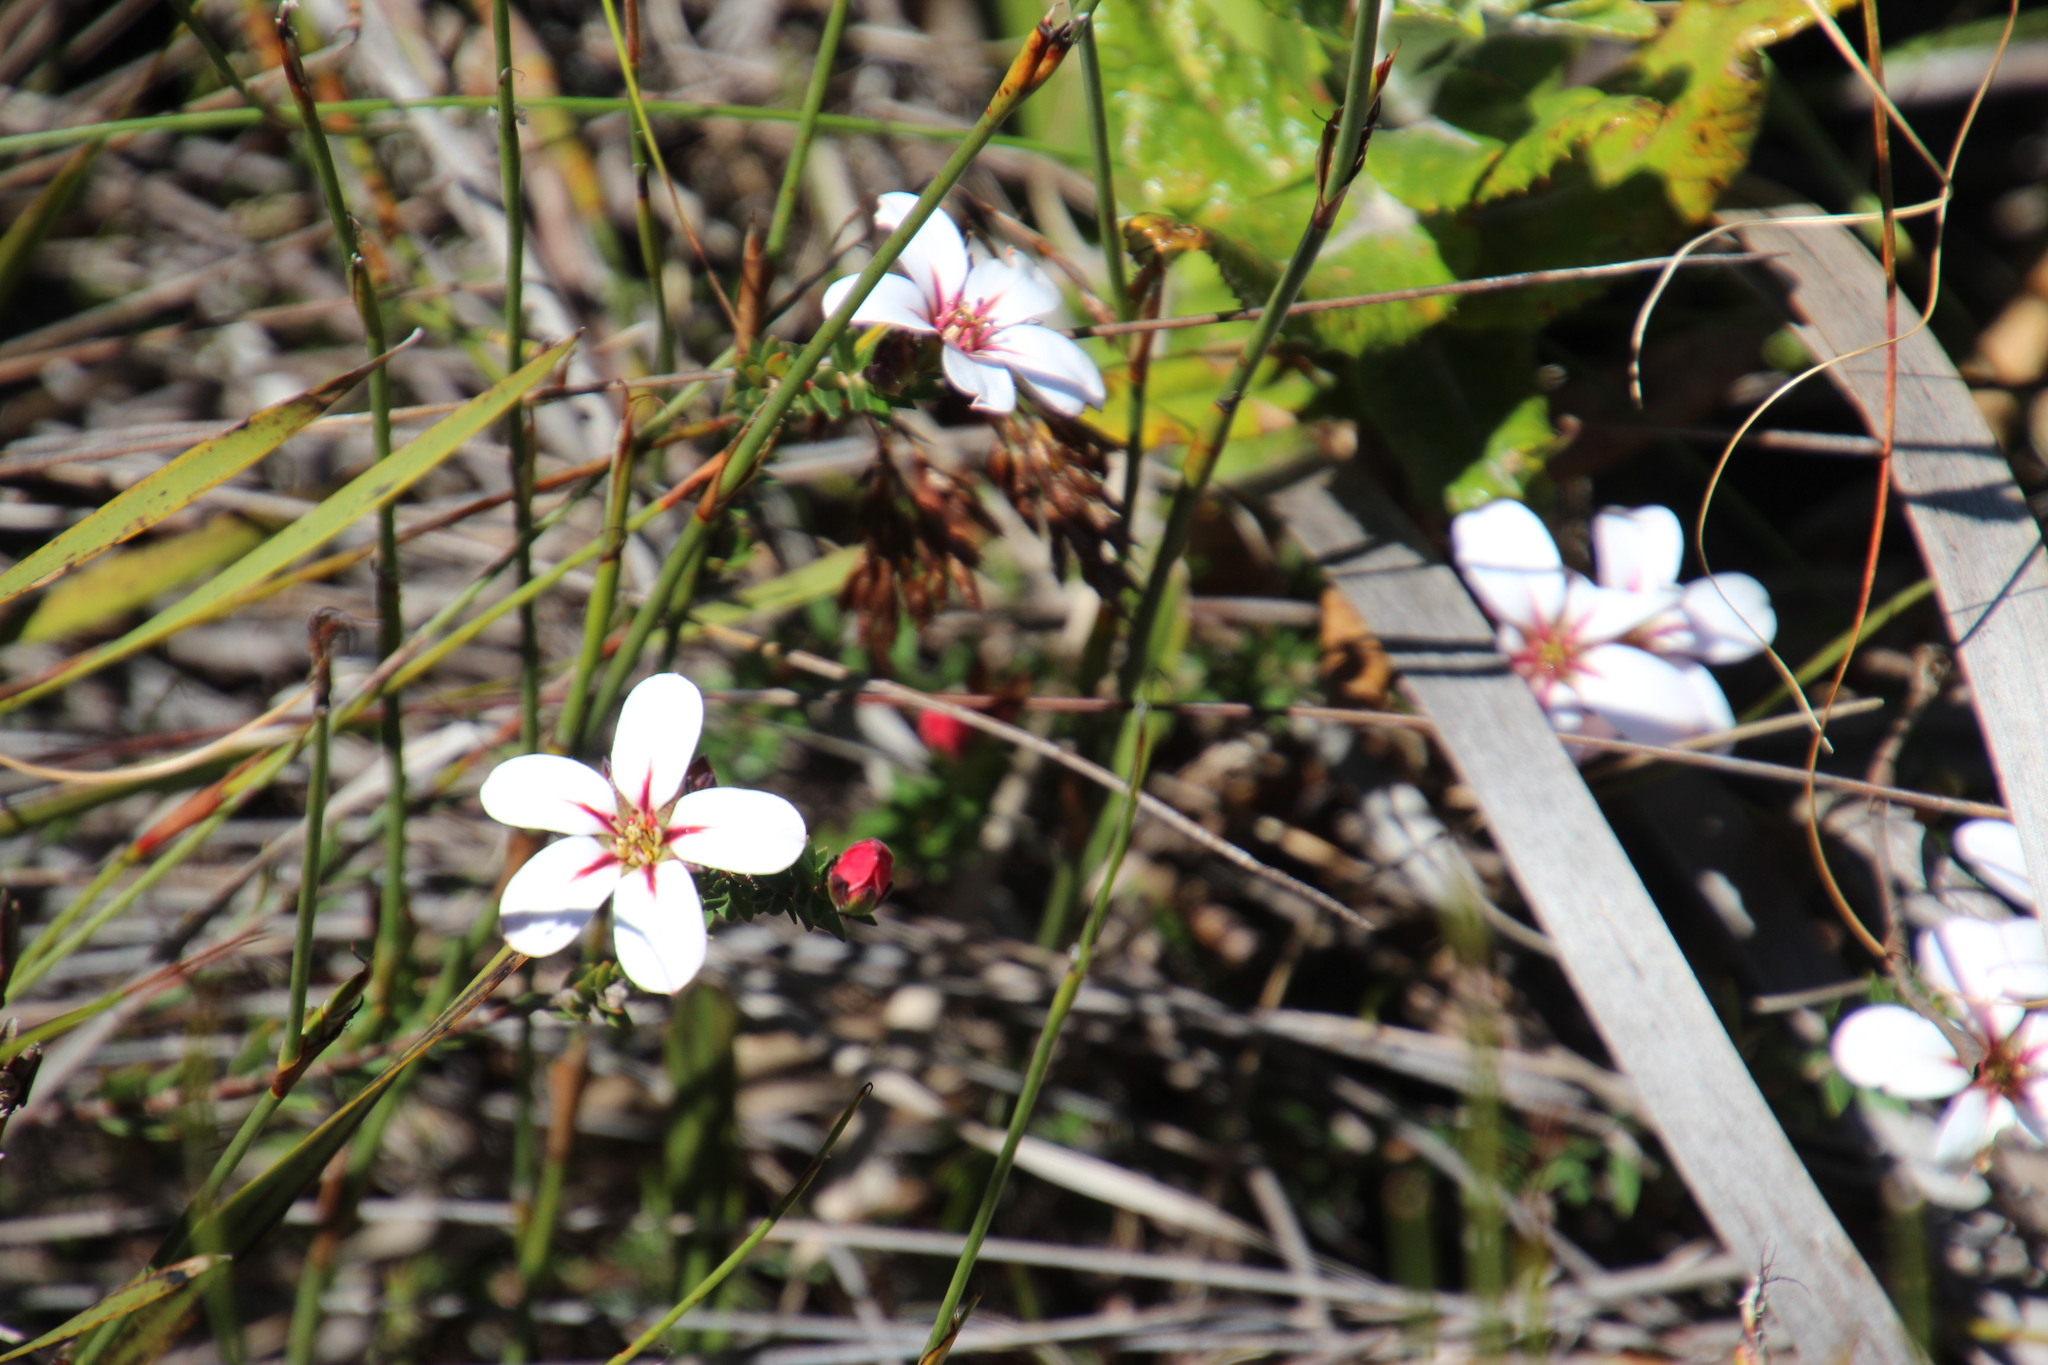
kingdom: Plantae
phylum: Tracheophyta
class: Magnoliopsida
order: Sapindales
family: Rutaceae
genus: Adenandra
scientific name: Adenandra villosa
